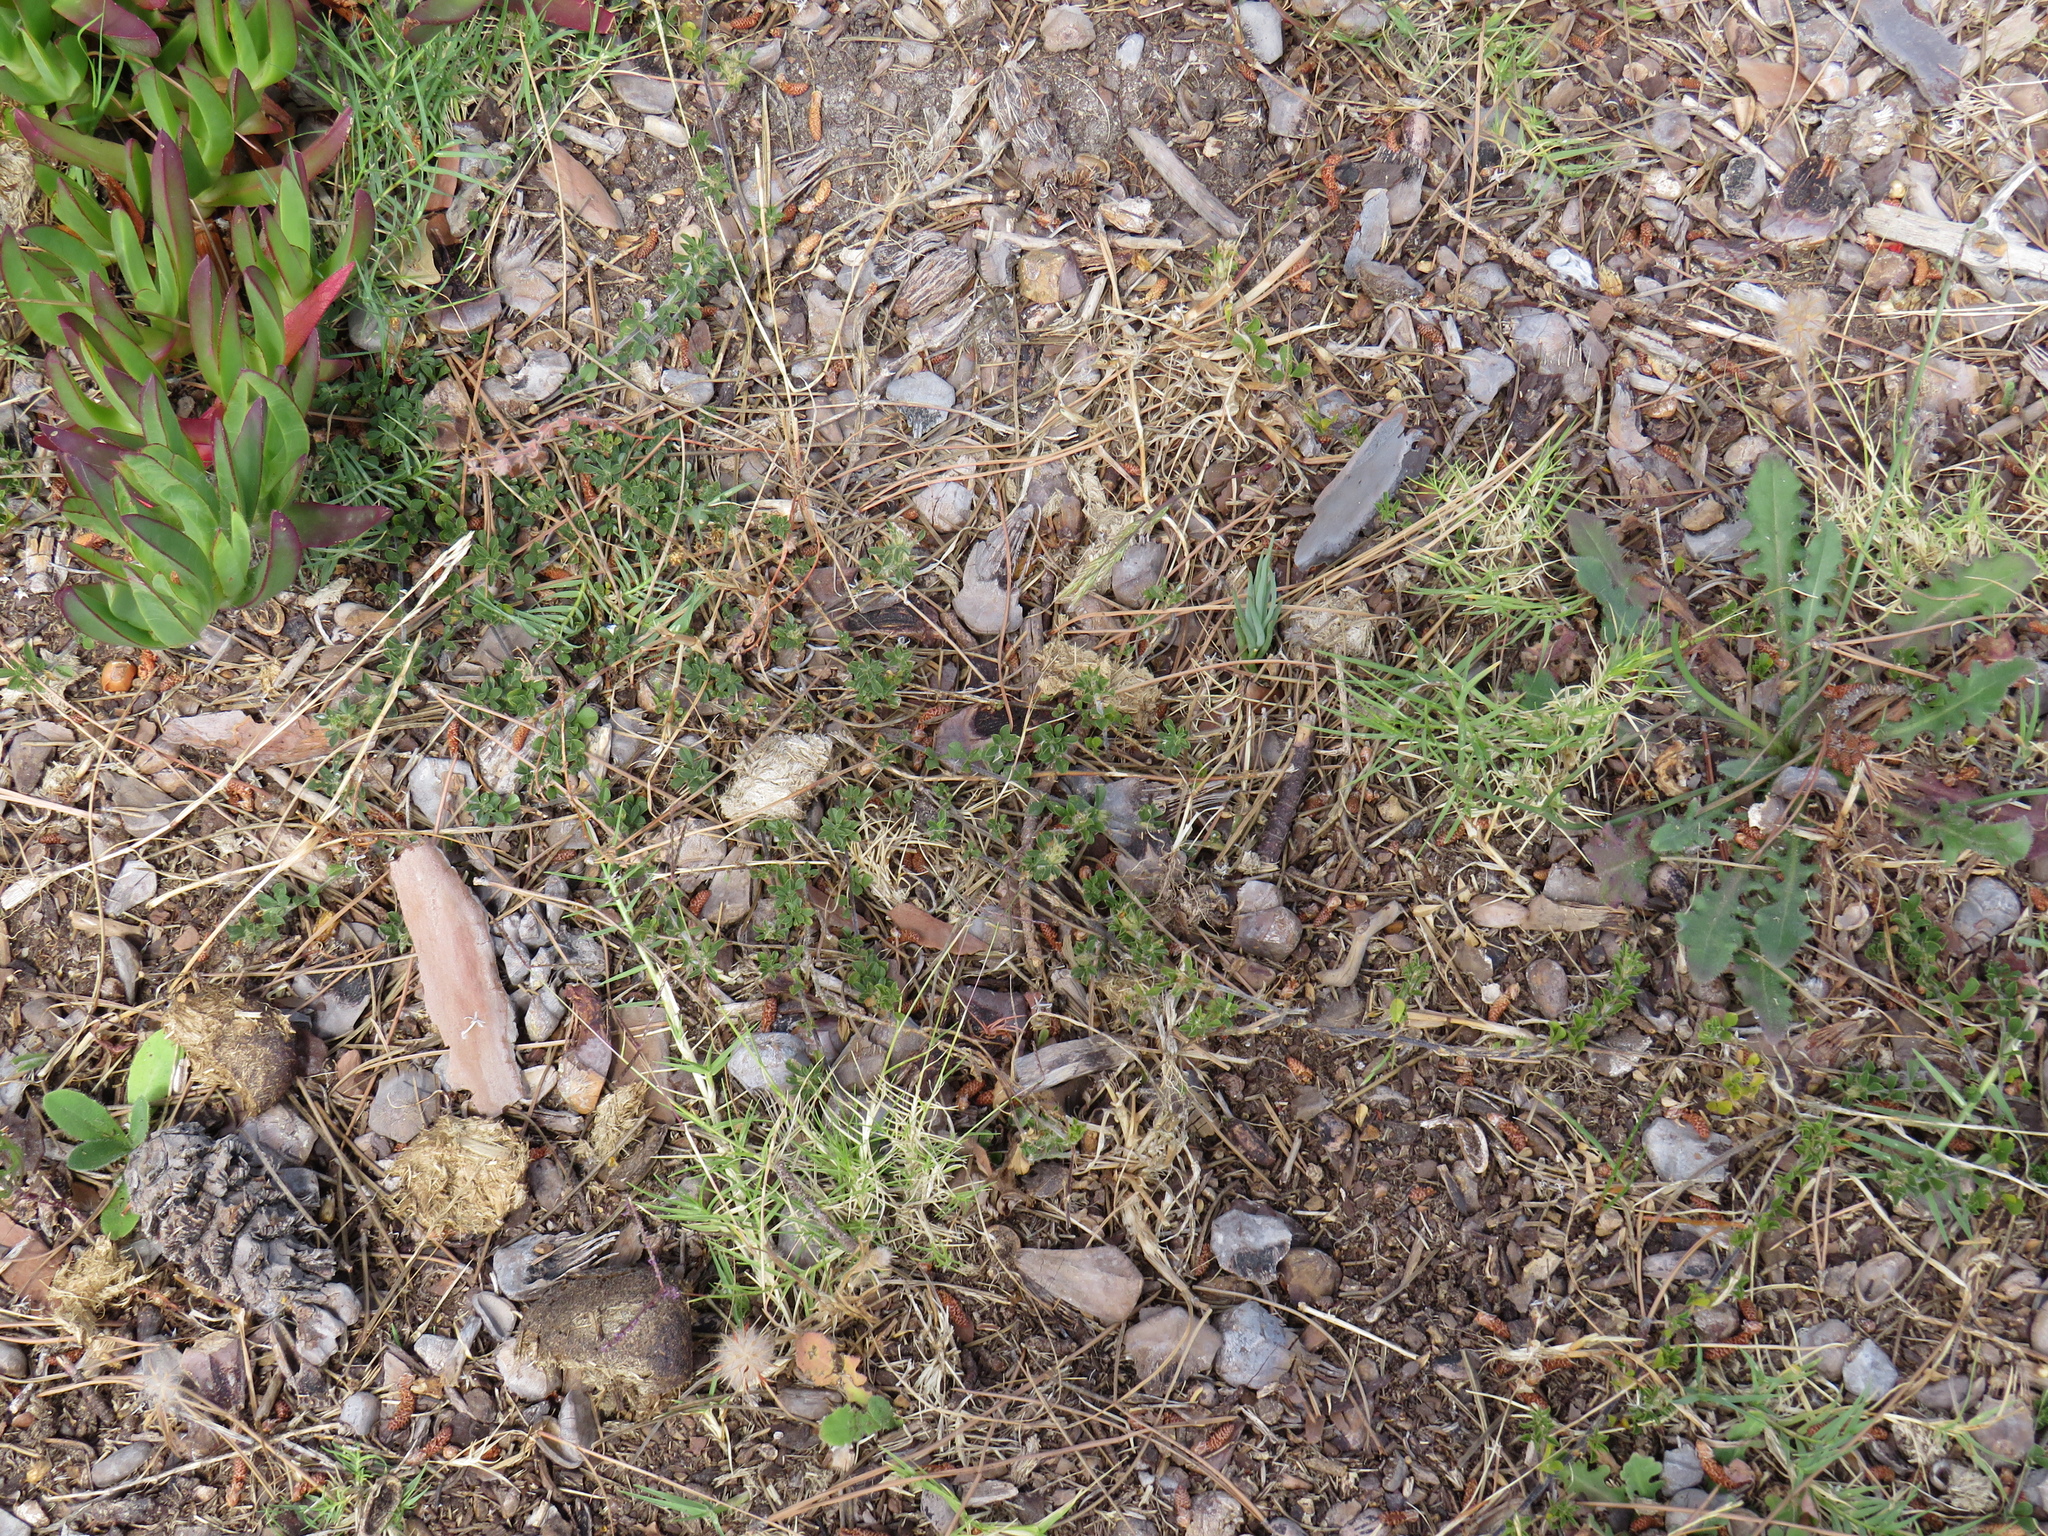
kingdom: Plantae
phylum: Tracheophyta
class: Magnoliopsida
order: Fabales
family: Fabaceae
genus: Psoralea
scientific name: Psoralea
